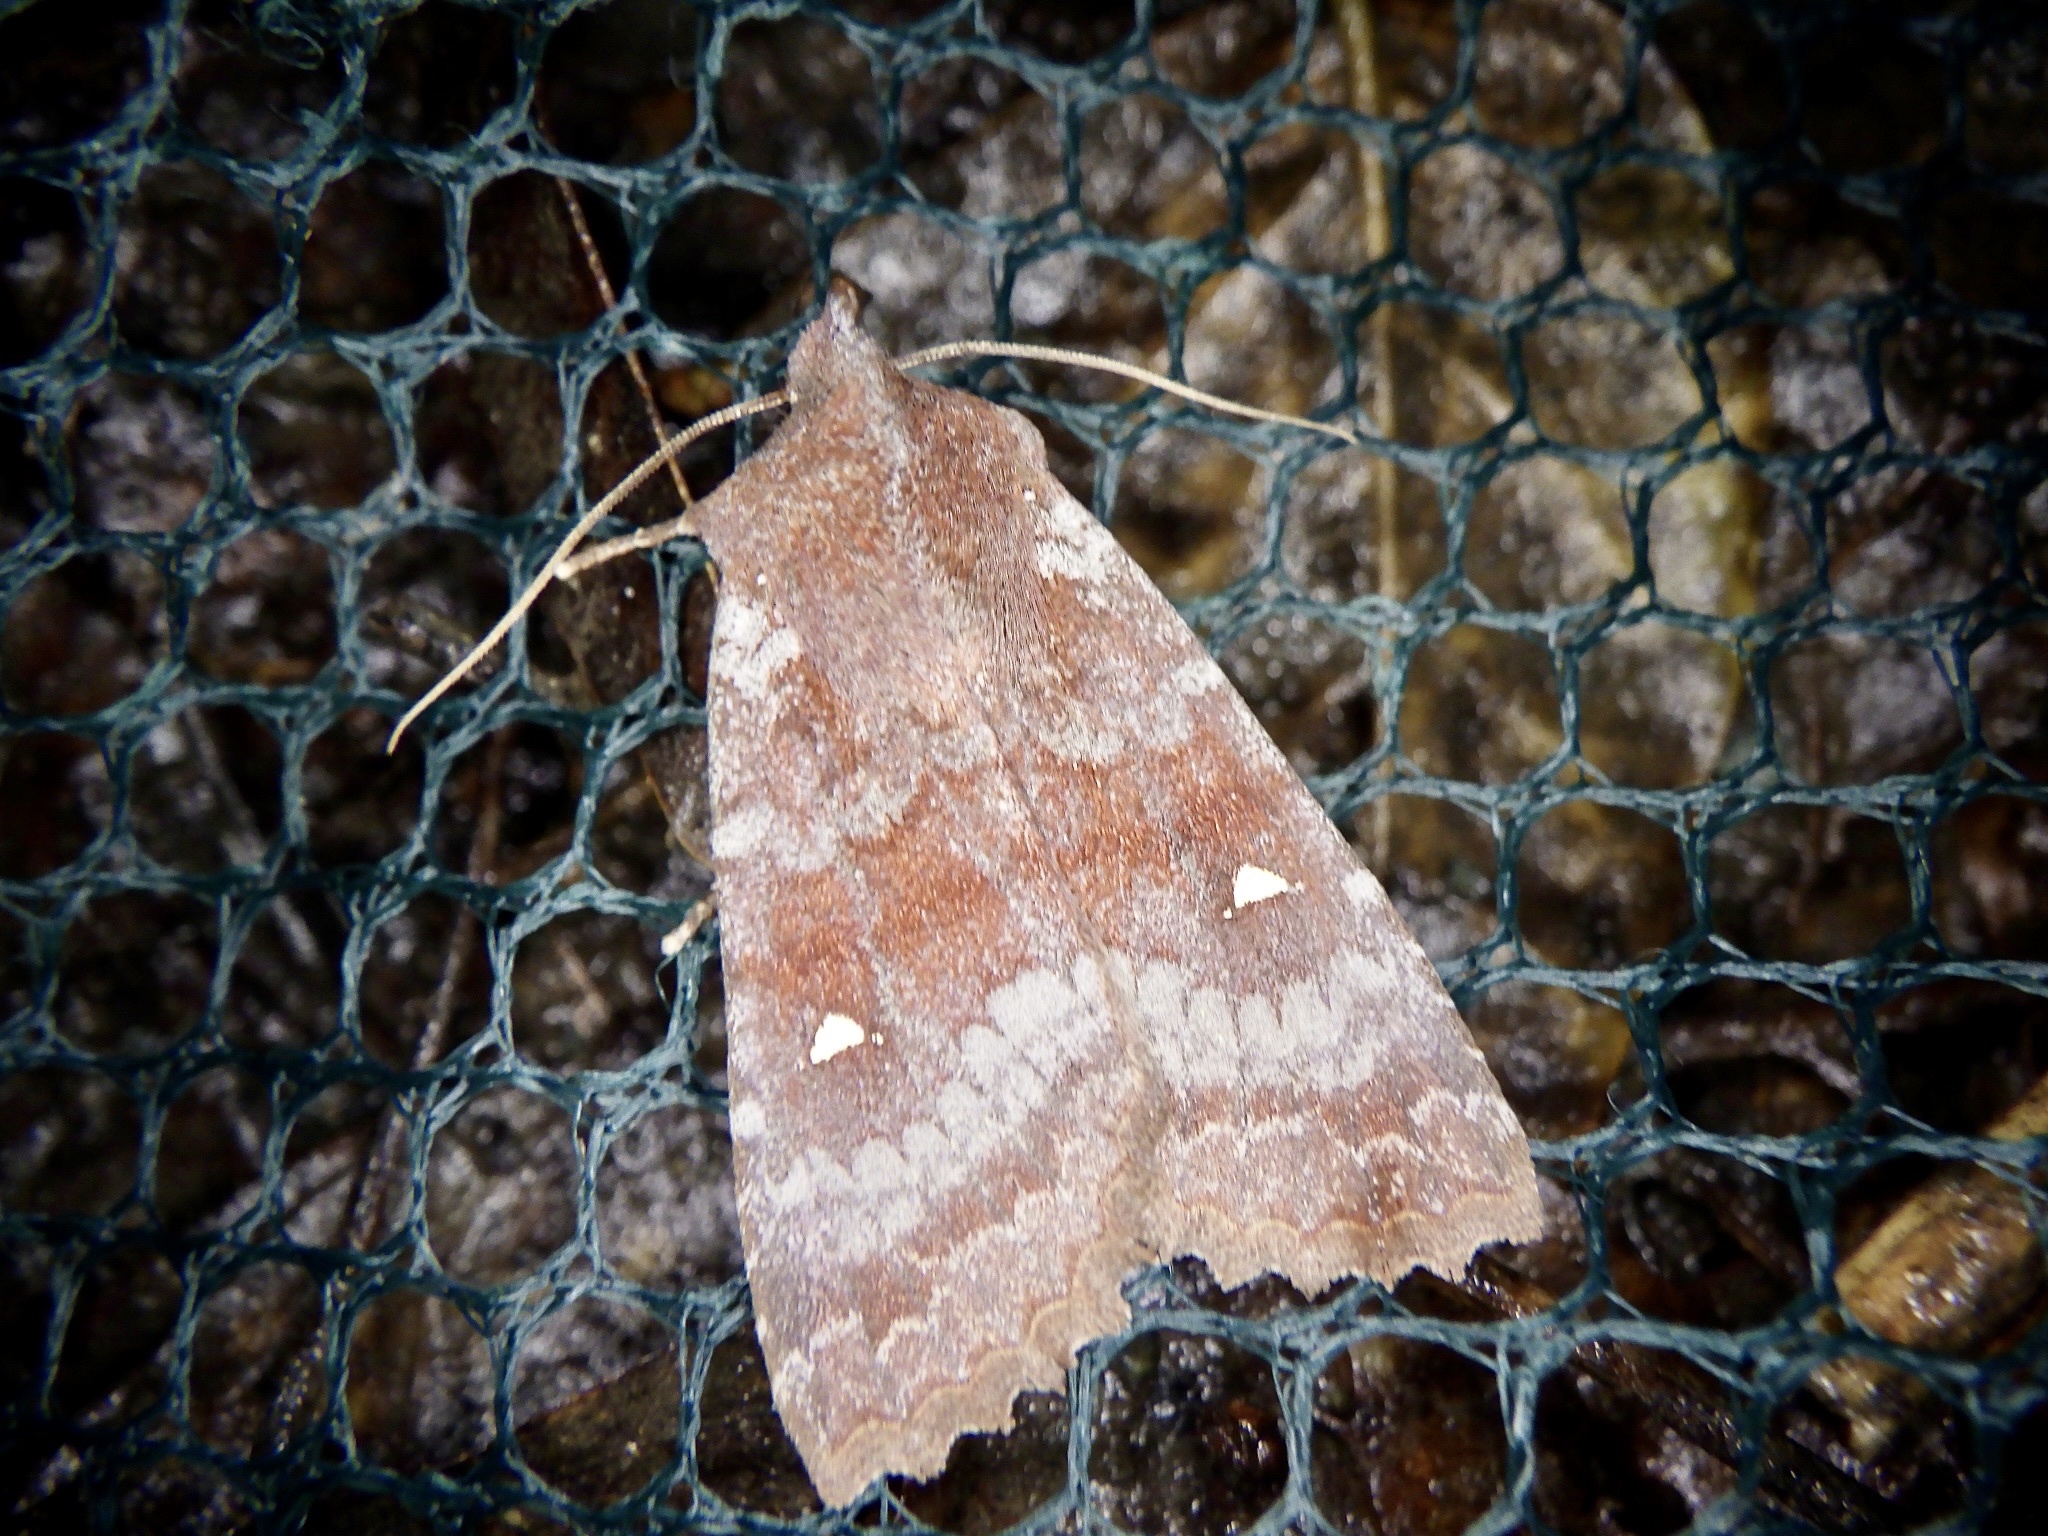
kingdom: Animalia
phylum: Arthropoda
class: Insecta
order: Lepidoptera
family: Noctuidae
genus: Eupsilia
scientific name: Eupsilia unipuncta
